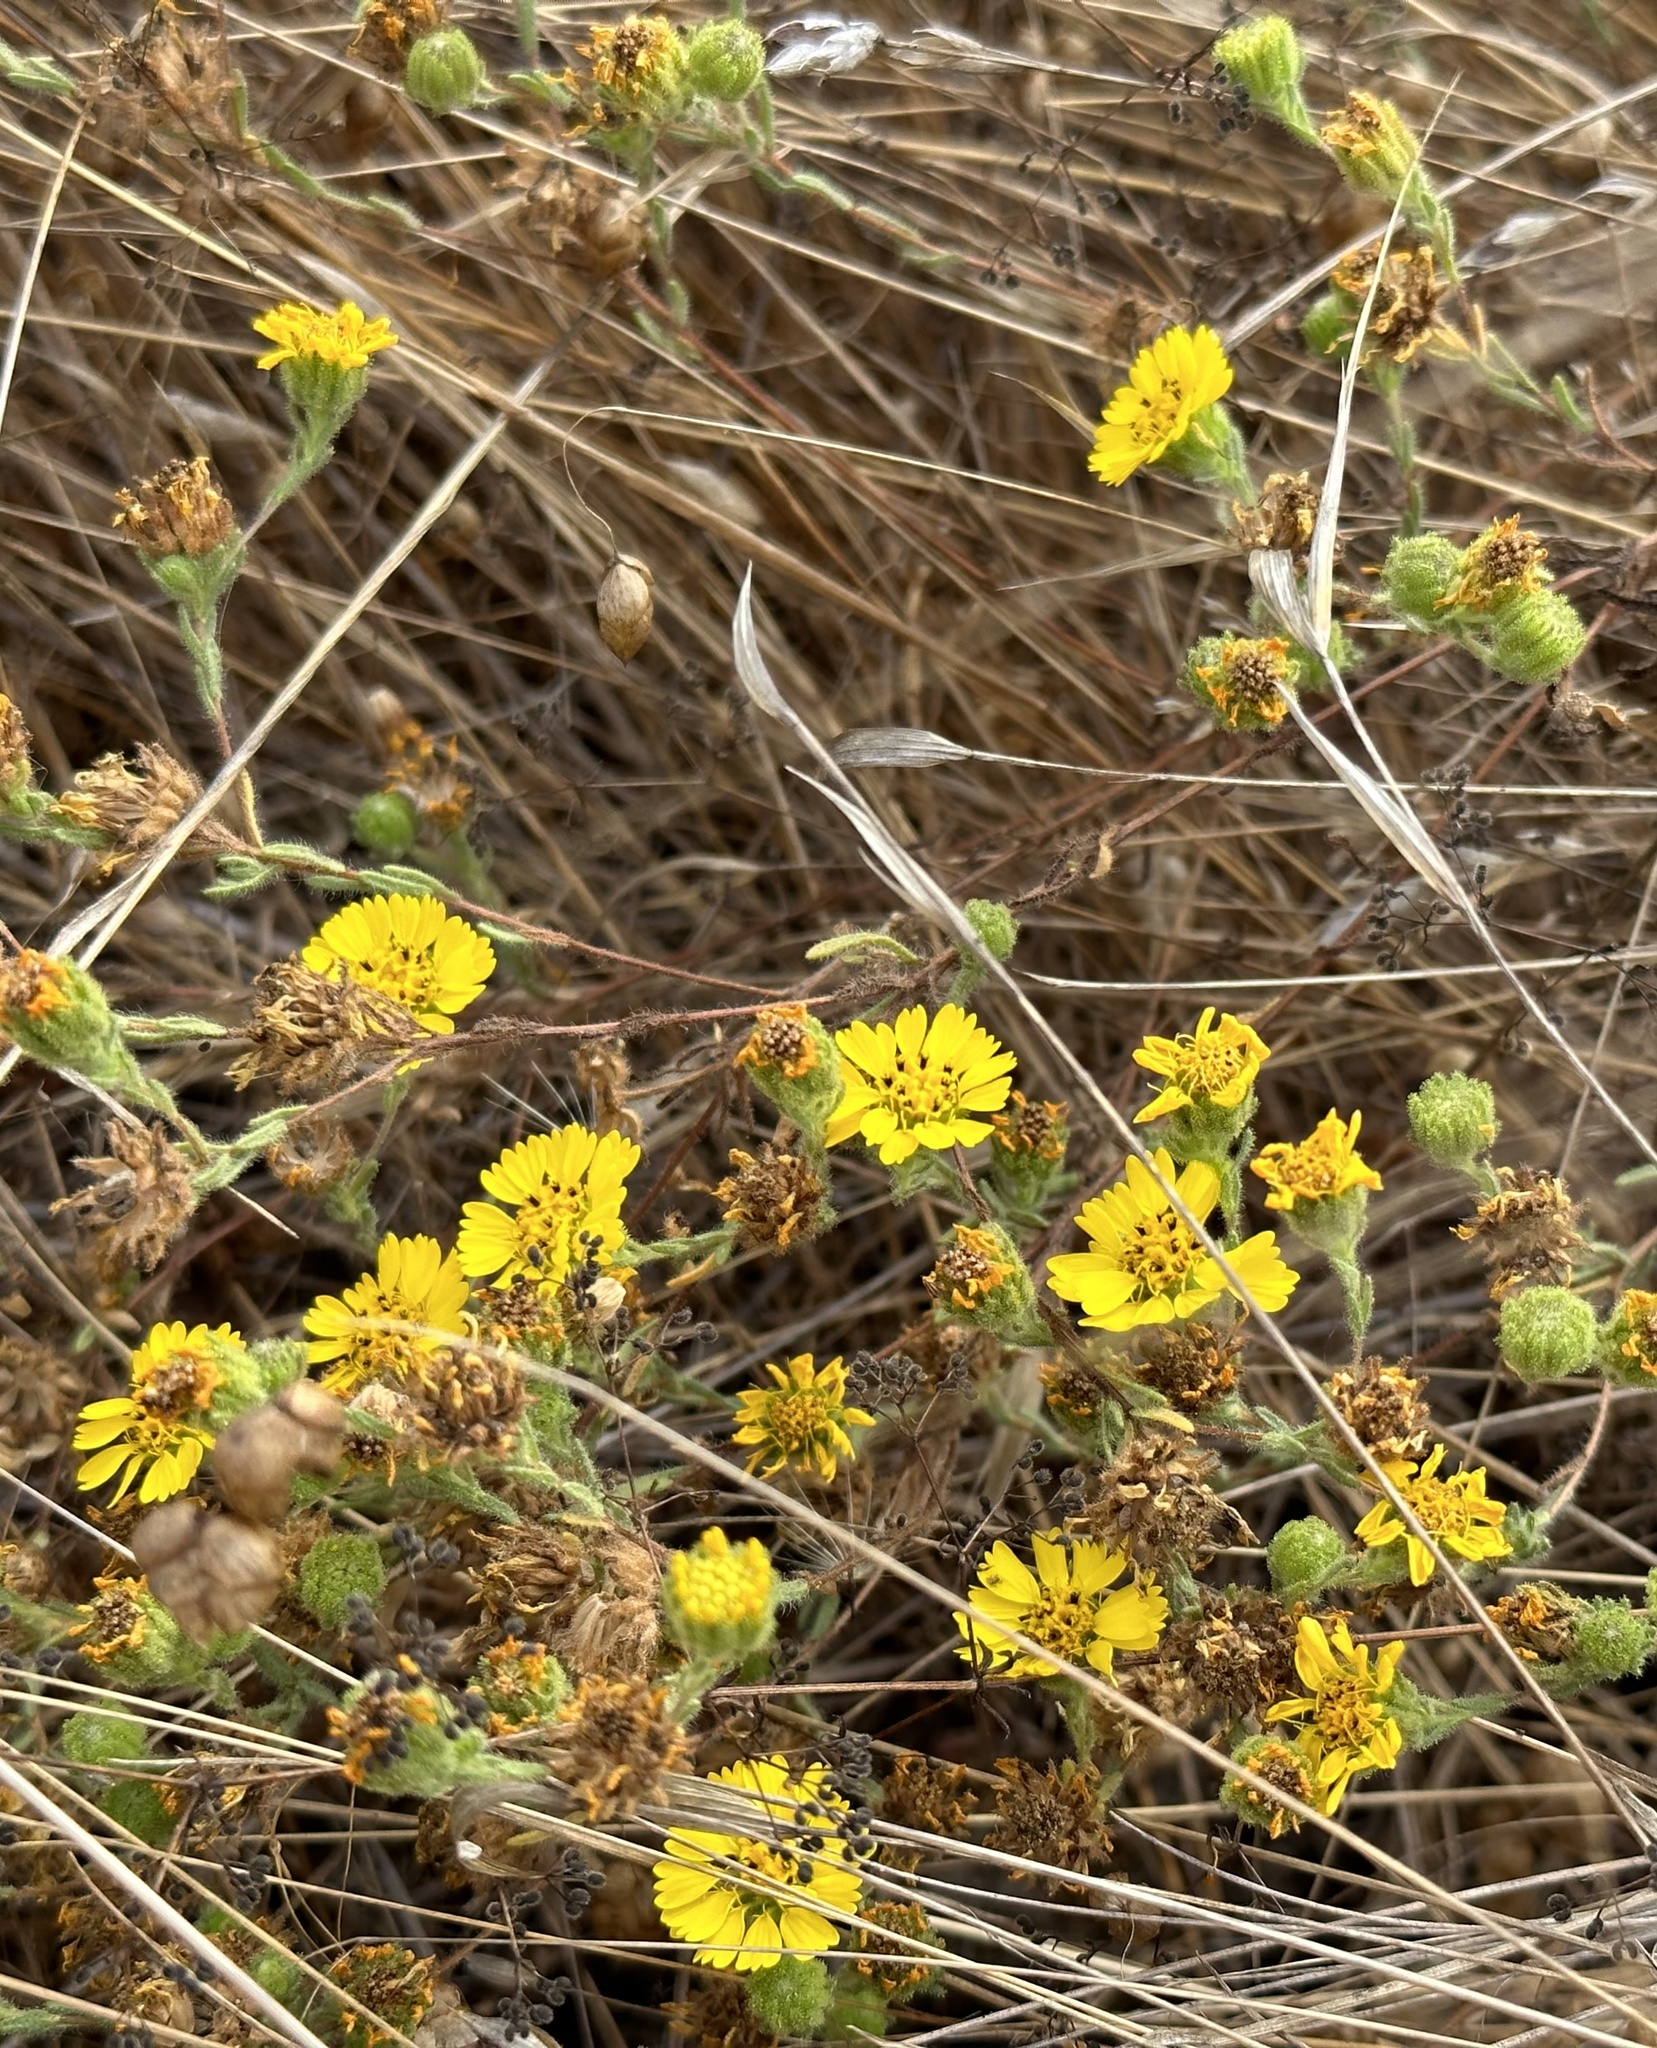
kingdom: Plantae
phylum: Tracheophyta
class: Magnoliopsida
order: Asterales
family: Asteraceae
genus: Deinandra
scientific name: Deinandra corymbosa
